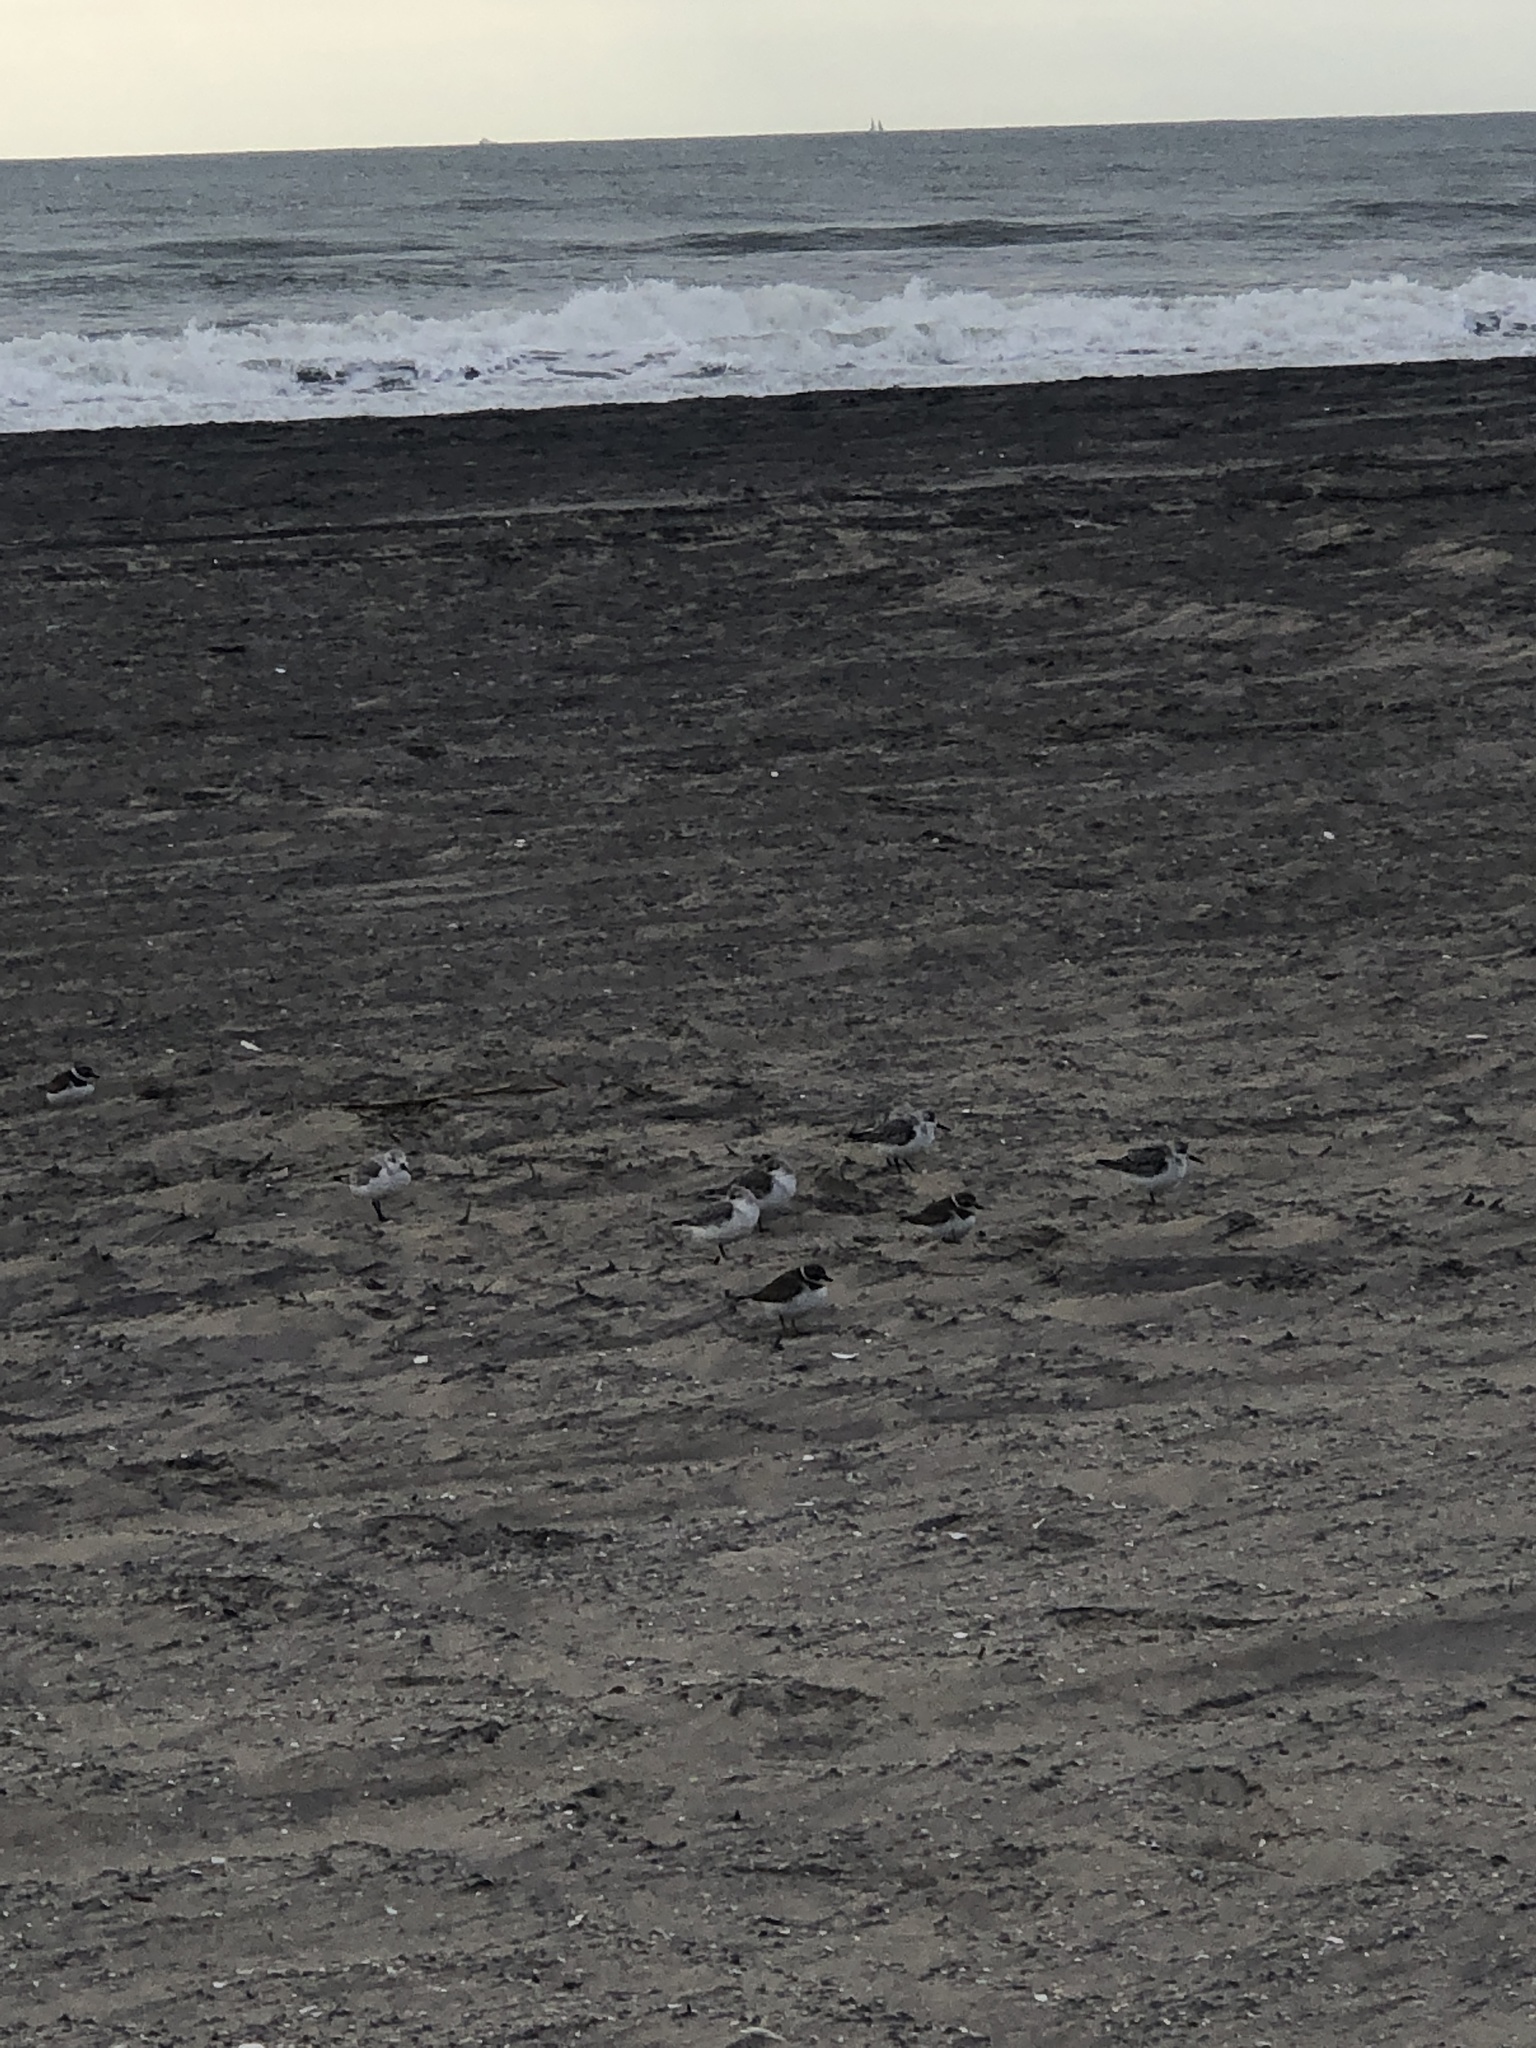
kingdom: Animalia
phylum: Chordata
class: Aves
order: Charadriiformes
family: Scolopacidae
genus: Calidris
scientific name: Calidris alba
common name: Sanderling
